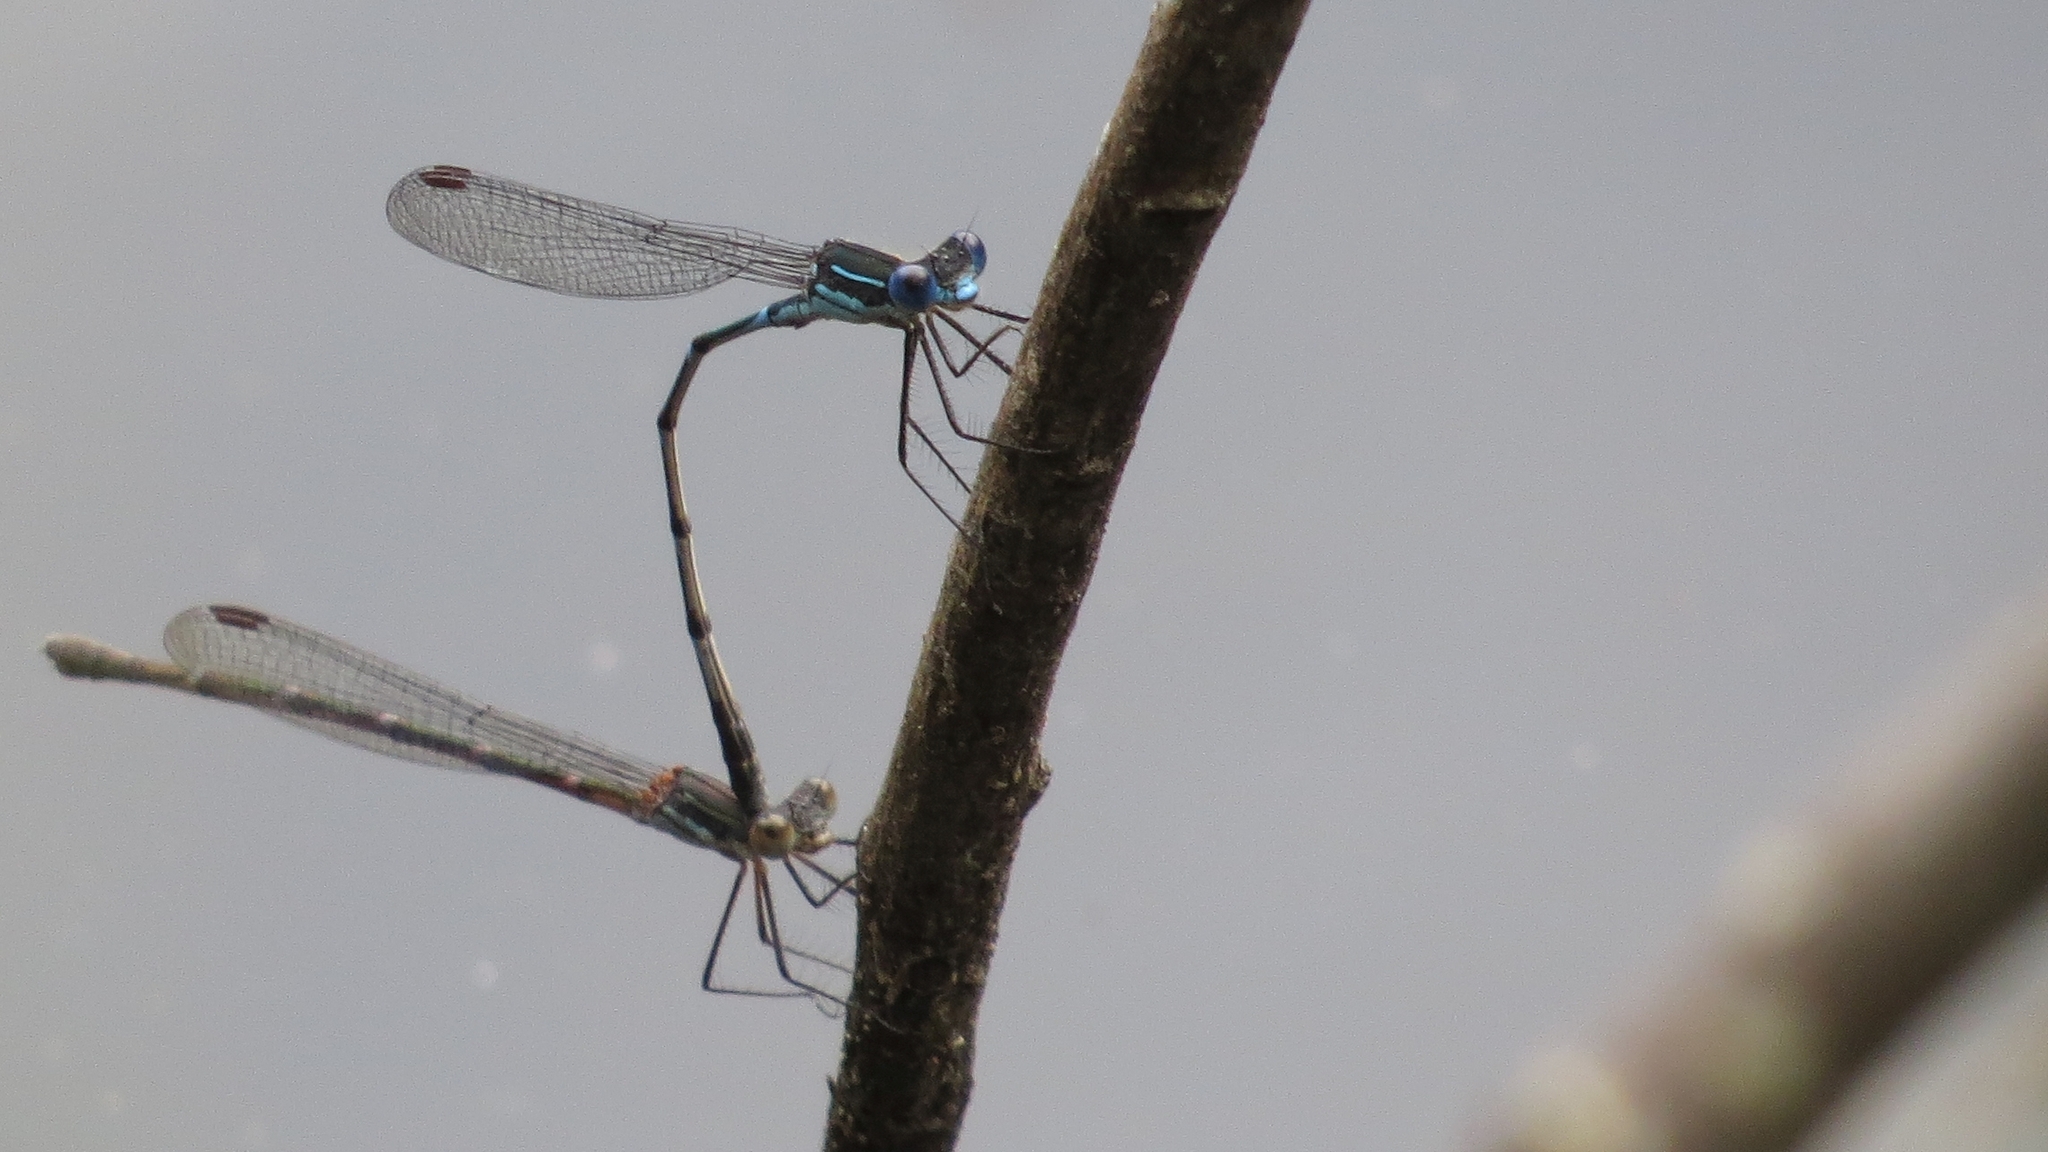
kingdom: Animalia
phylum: Arthropoda
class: Insecta
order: Odonata
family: Lestidae
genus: Austrolestes
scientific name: Austrolestes minjerriba
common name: Dune ringtail
